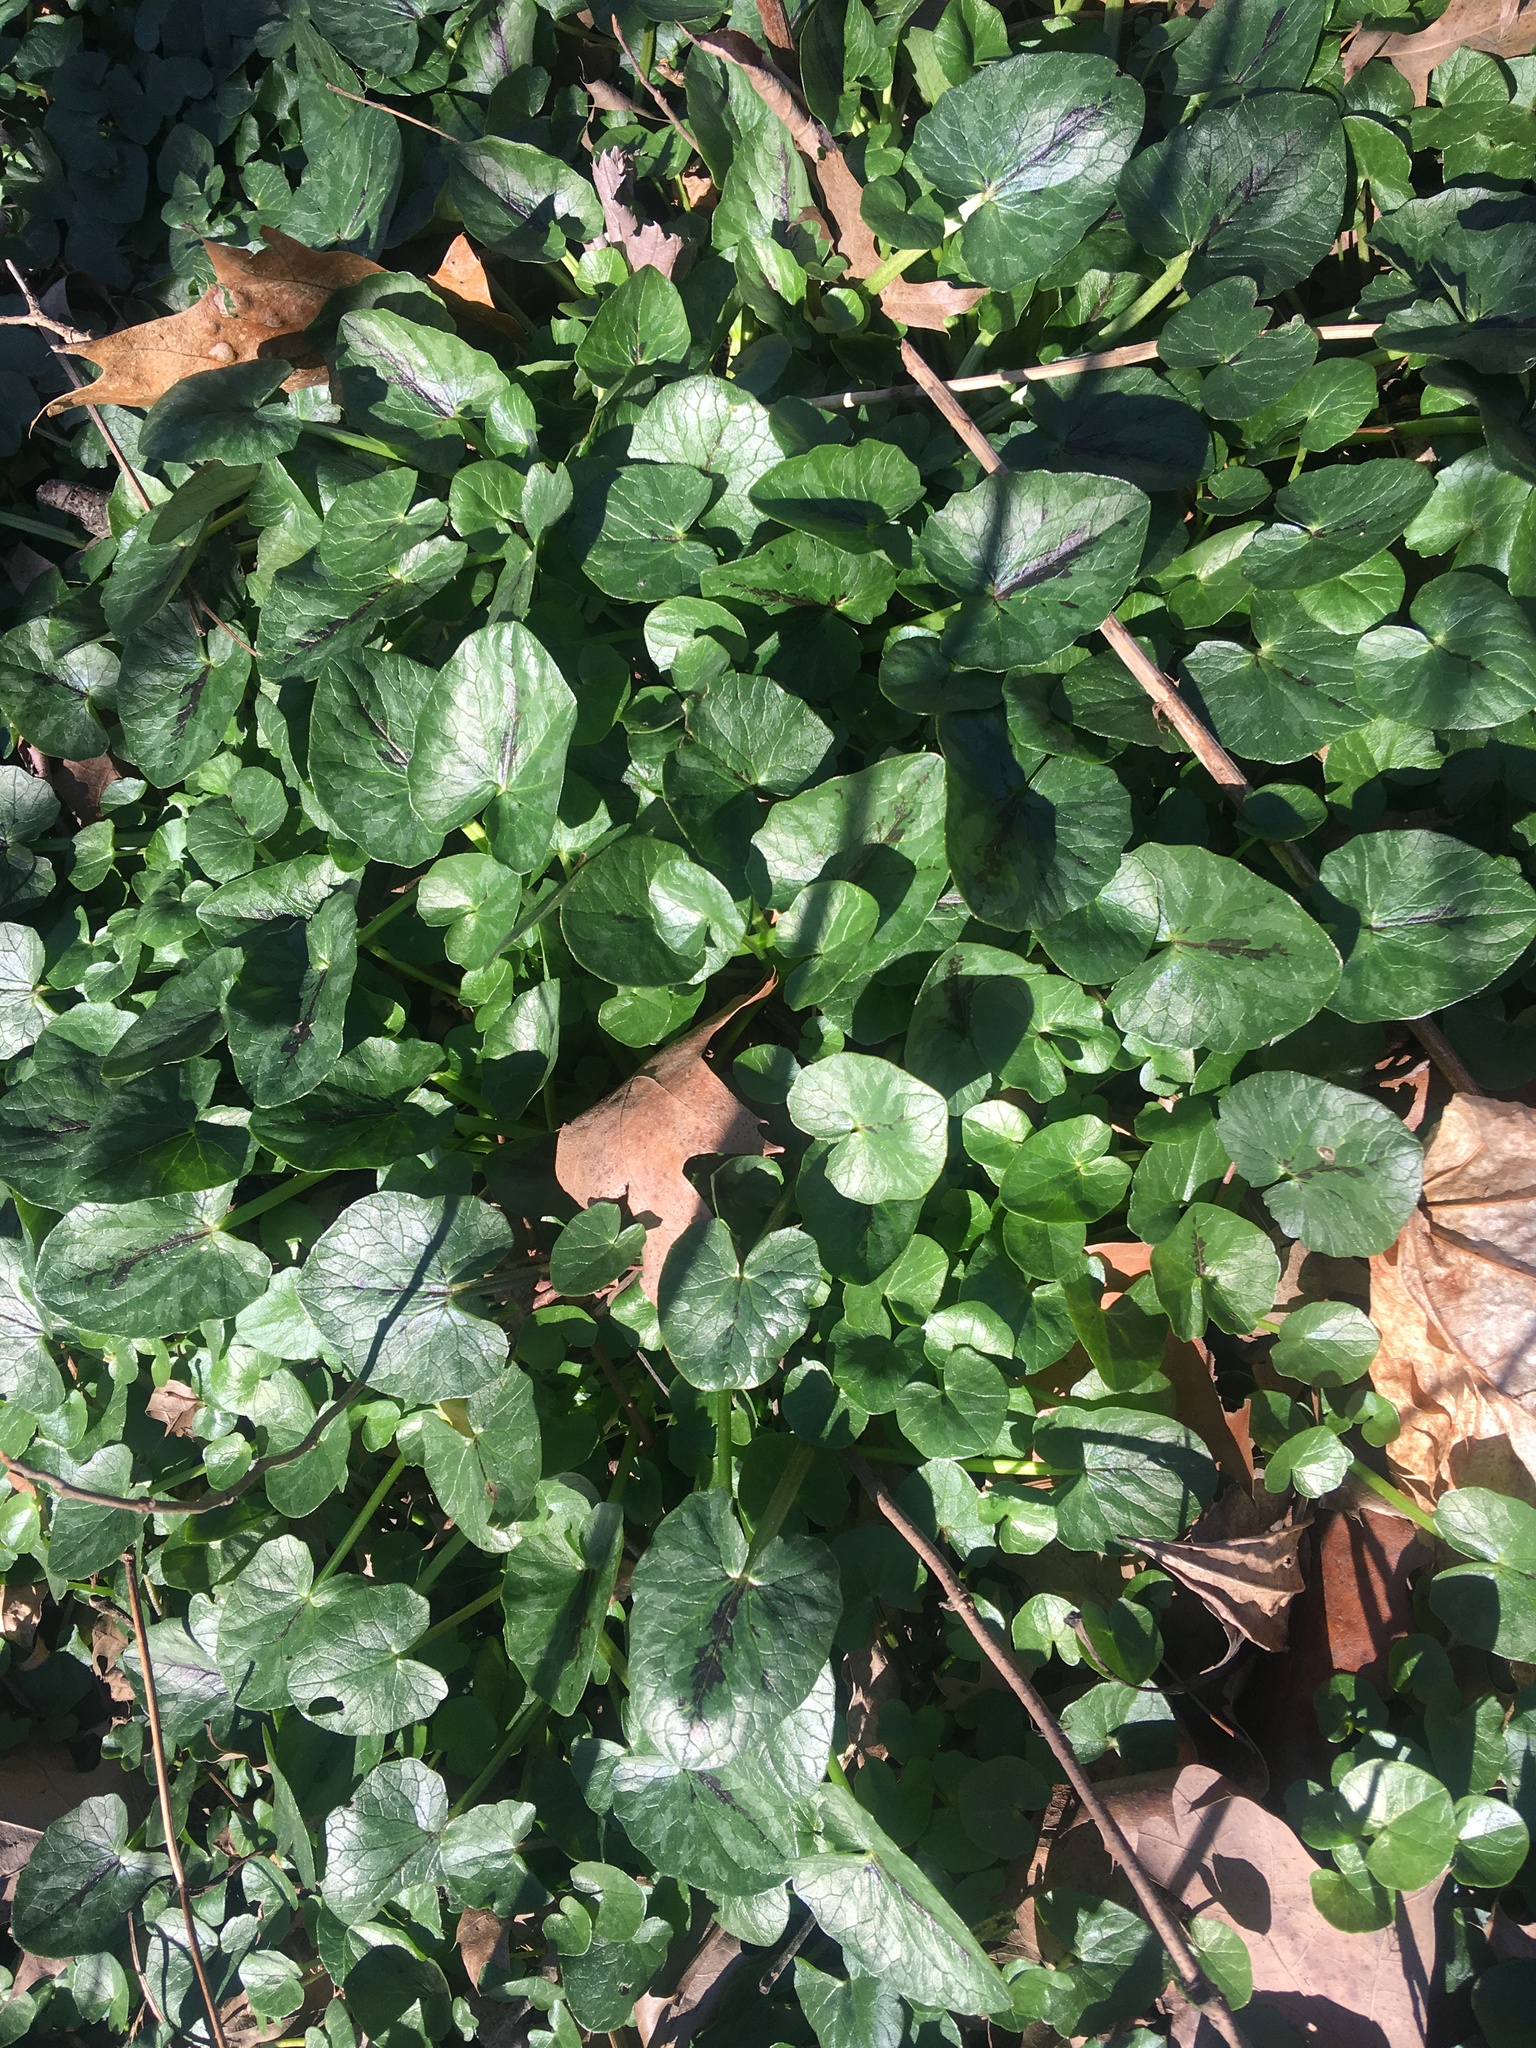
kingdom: Plantae
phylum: Tracheophyta
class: Magnoliopsida
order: Ranunculales
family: Ranunculaceae
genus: Ficaria
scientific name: Ficaria verna
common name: Lesser celandine
